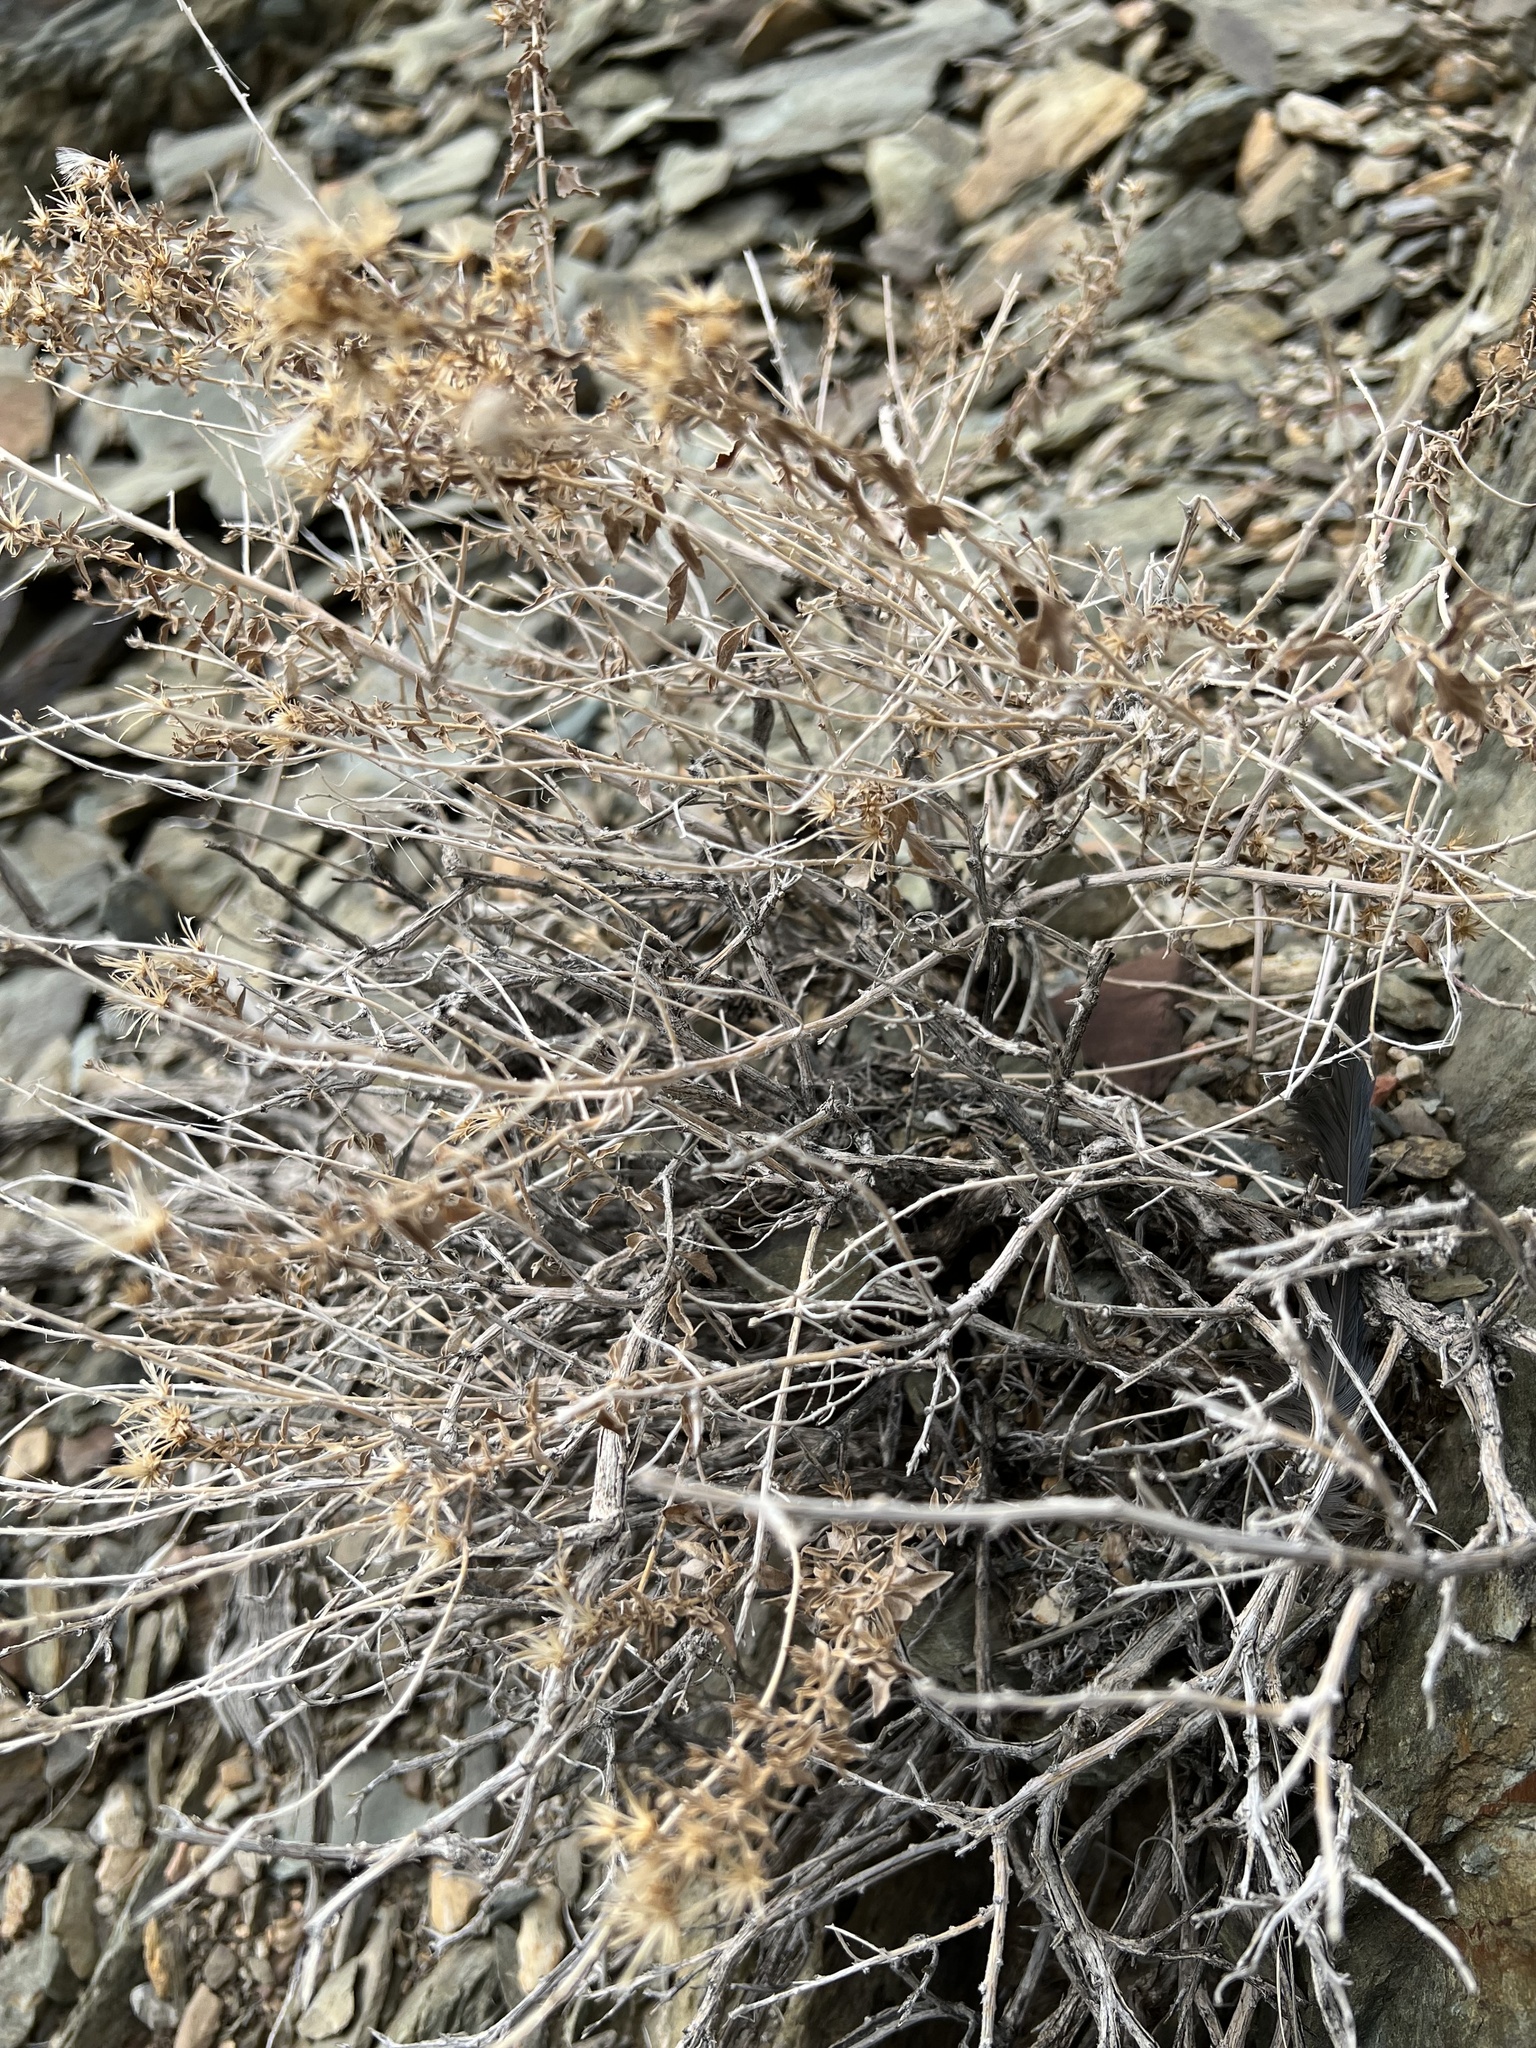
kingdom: Plantae
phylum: Tracheophyta
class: Magnoliopsida
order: Asterales
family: Asteraceae
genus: Brickellia
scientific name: Brickellia microphylla
